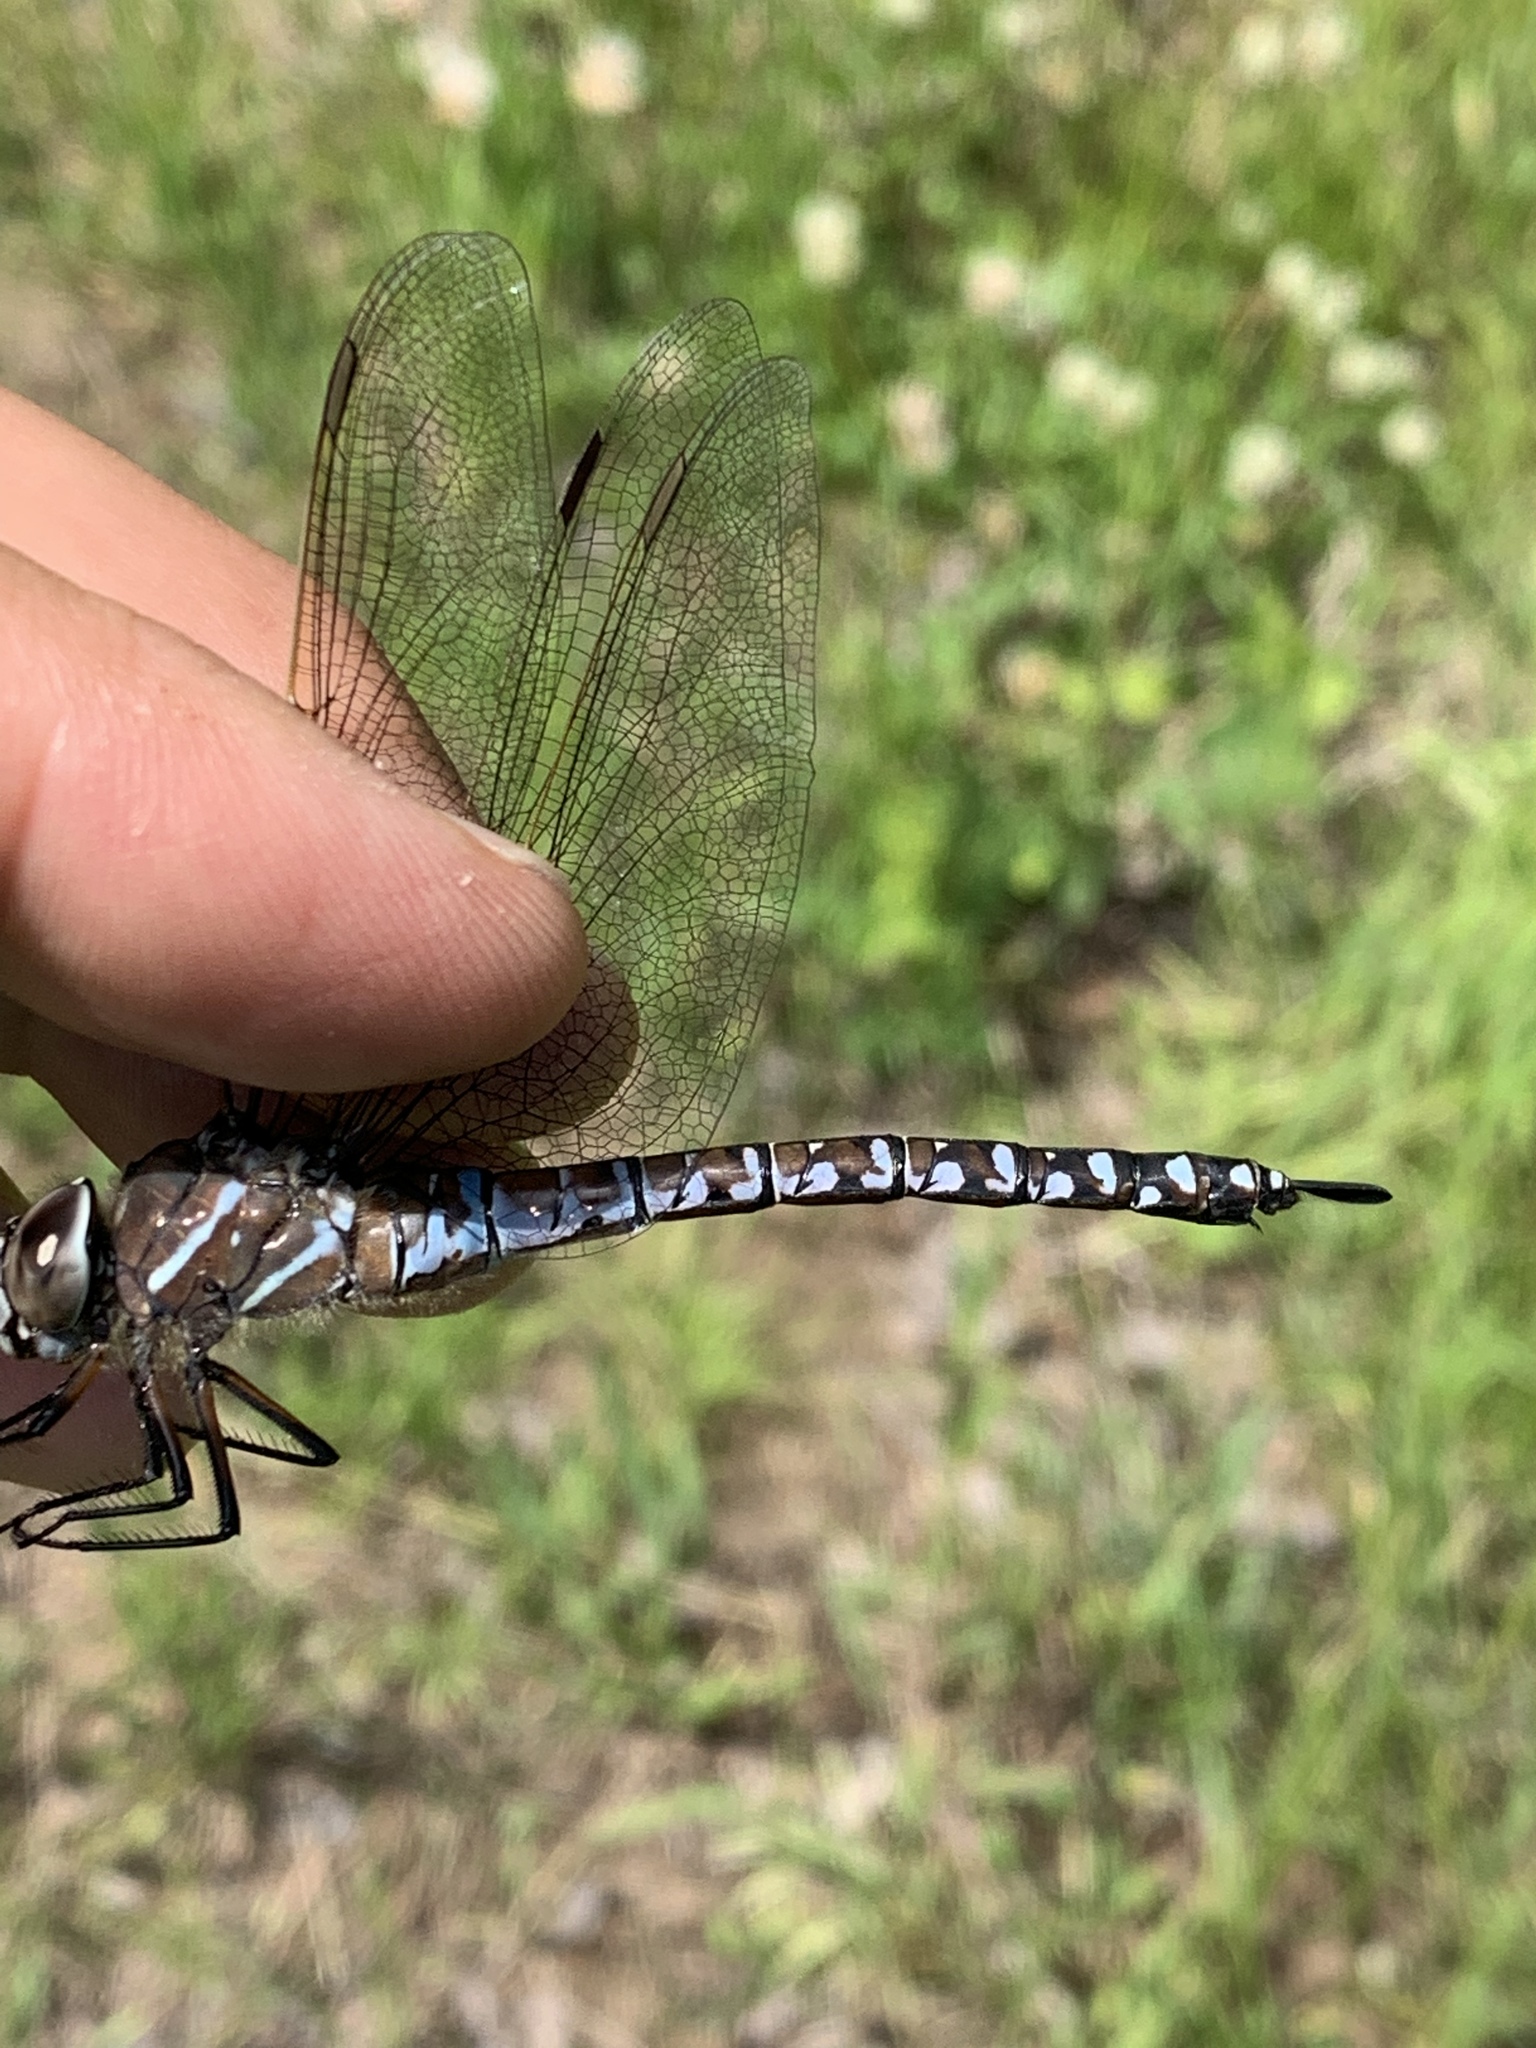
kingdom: Animalia
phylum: Arthropoda
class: Insecta
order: Odonata
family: Aeshnidae
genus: Aeshna
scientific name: Aeshna interrupta
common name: Variable darner
